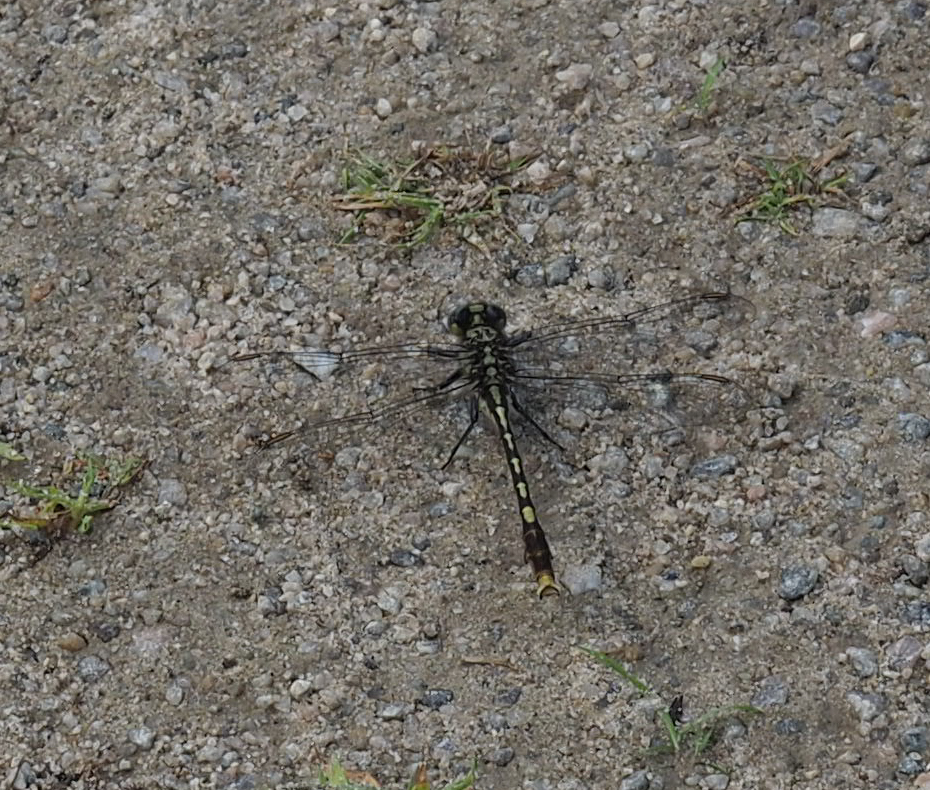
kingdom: Animalia
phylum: Arthropoda
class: Insecta
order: Odonata
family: Gomphidae
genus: Arigomphus
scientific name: Arigomphus villosipes
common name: Unicorn clubtail
